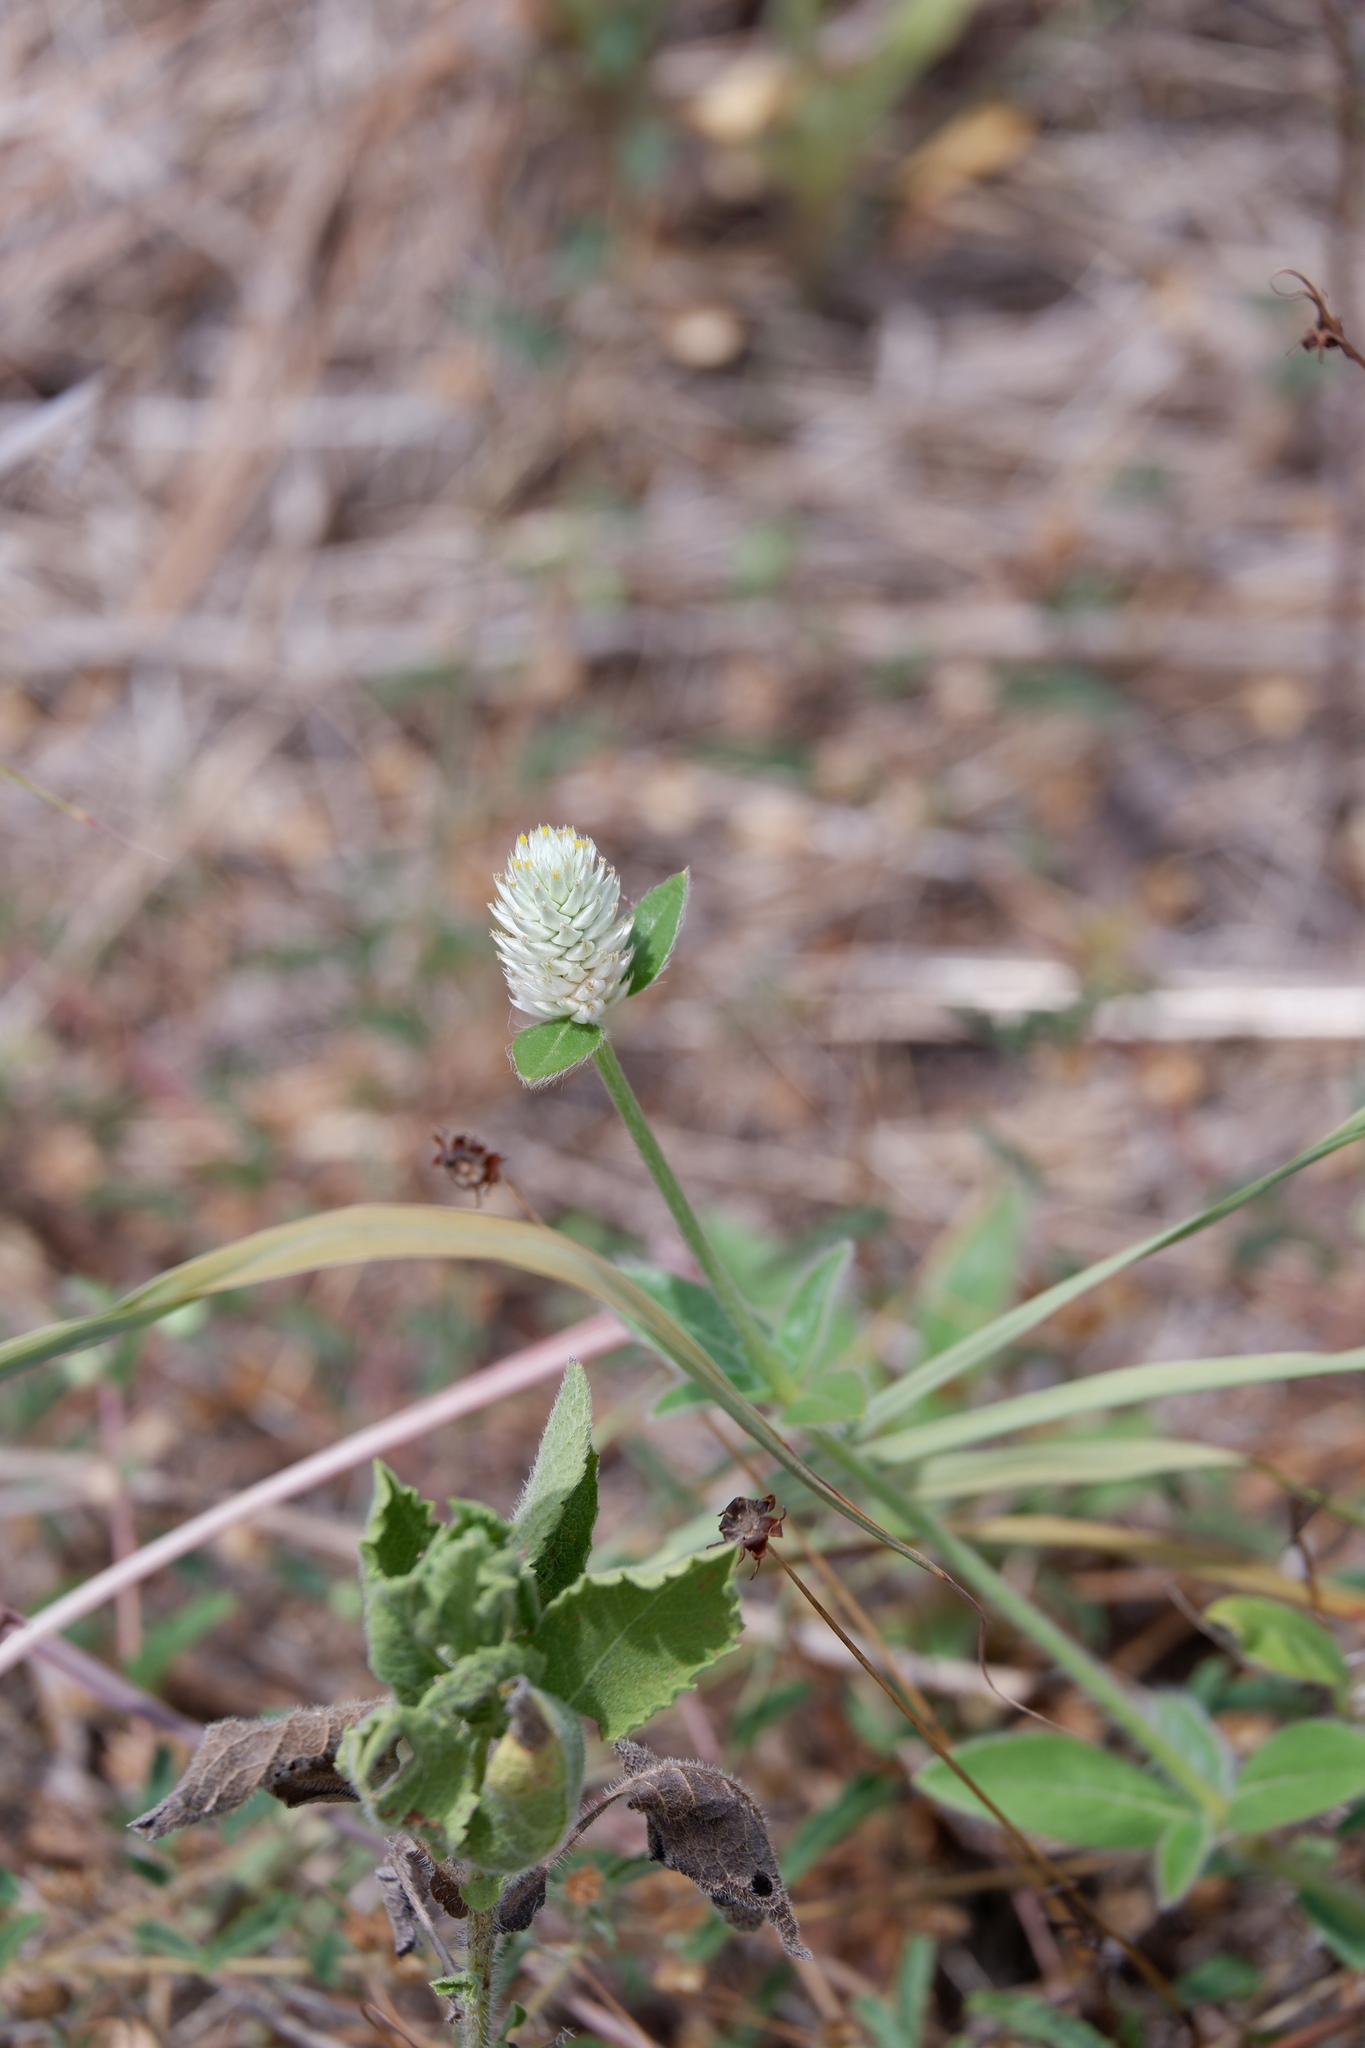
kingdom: Plantae
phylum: Tracheophyta
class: Magnoliopsida
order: Caryophyllales
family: Amaranthaceae
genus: Gomphrena
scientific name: Gomphrena serrata
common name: Arrasa con todo
